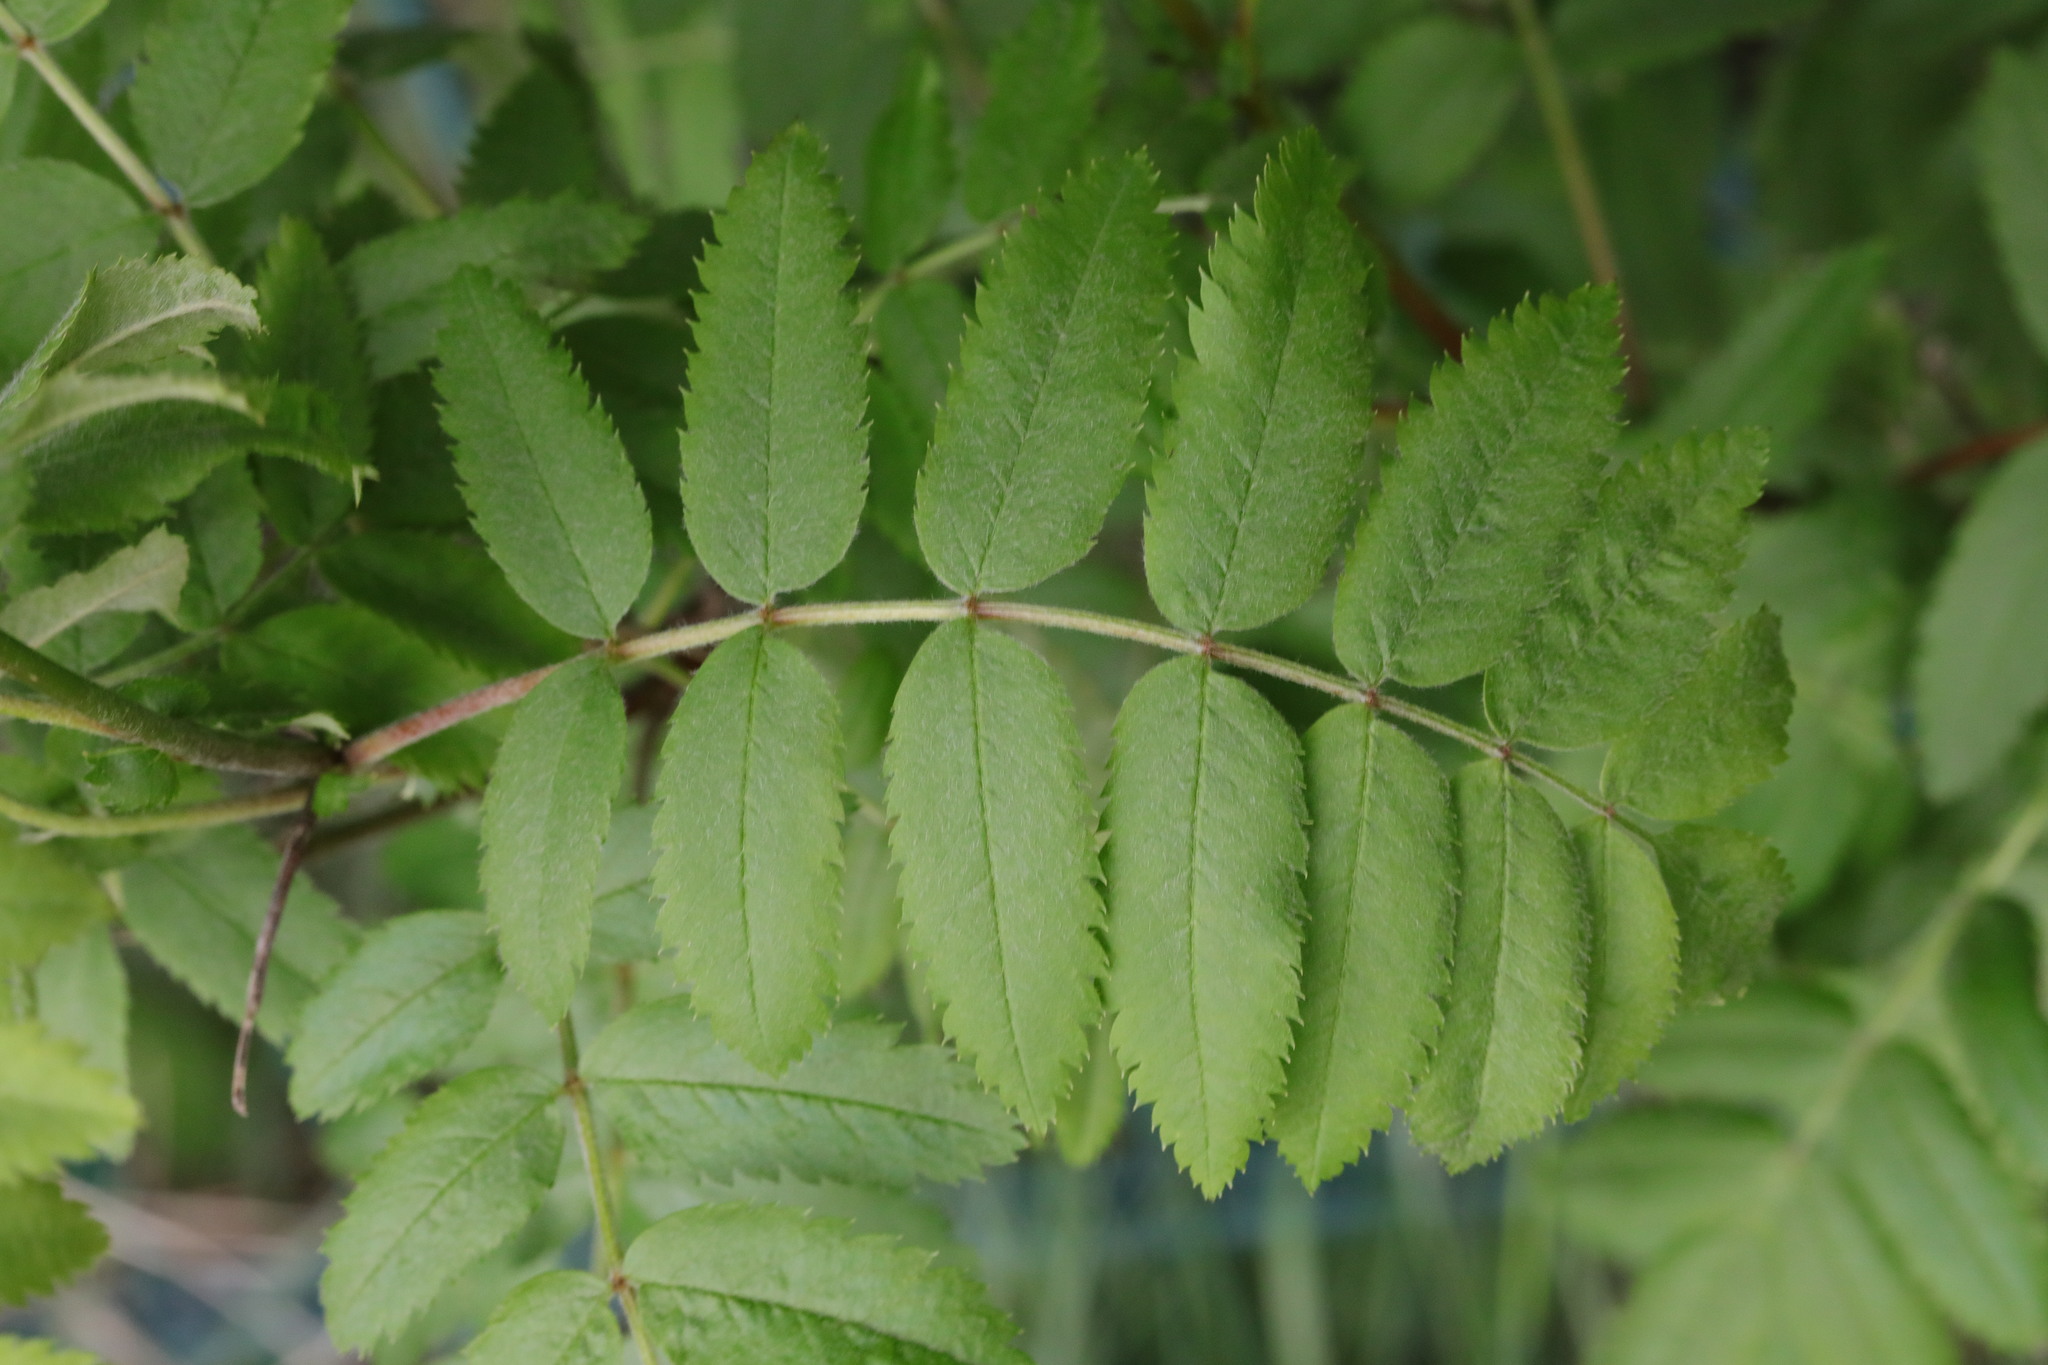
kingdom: Plantae
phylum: Tracheophyta
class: Magnoliopsida
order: Rosales
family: Rosaceae
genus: Sorbus
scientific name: Sorbus aucuparia
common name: Rowan
